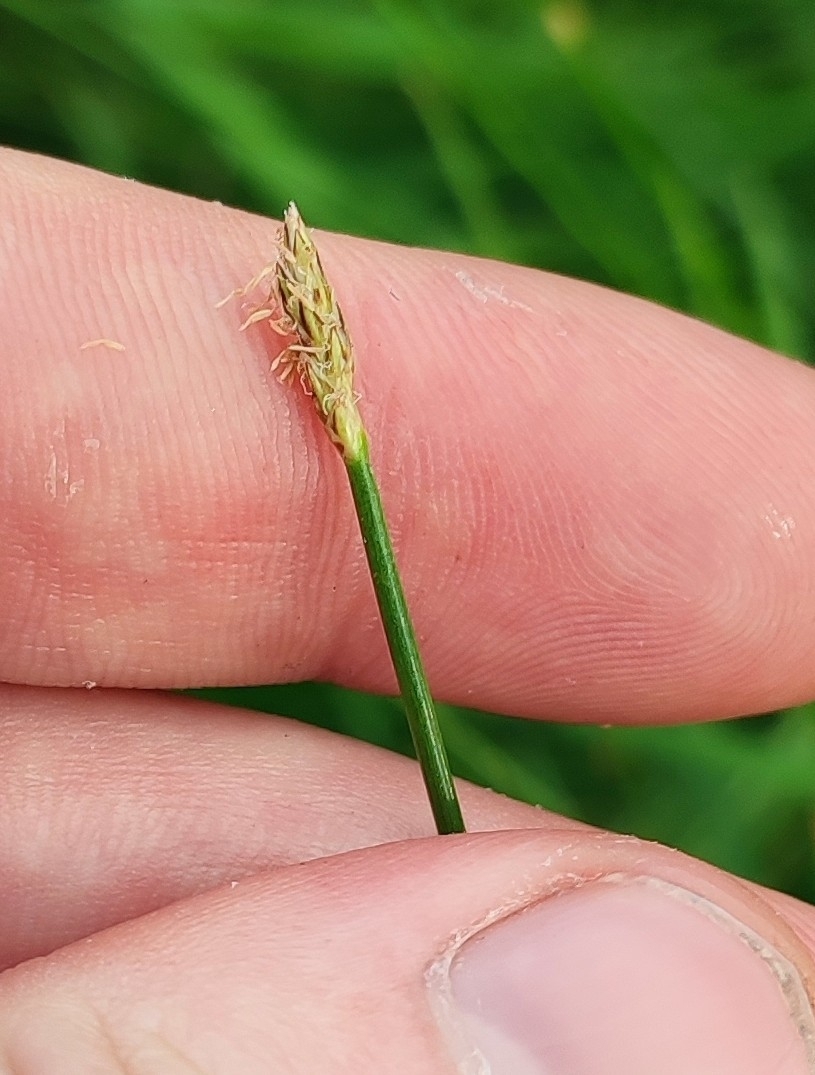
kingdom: Plantae
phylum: Tracheophyta
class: Liliopsida
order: Poales
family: Cyperaceae
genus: Eleocharis
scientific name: Eleocharis palustris
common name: Common spike-rush
